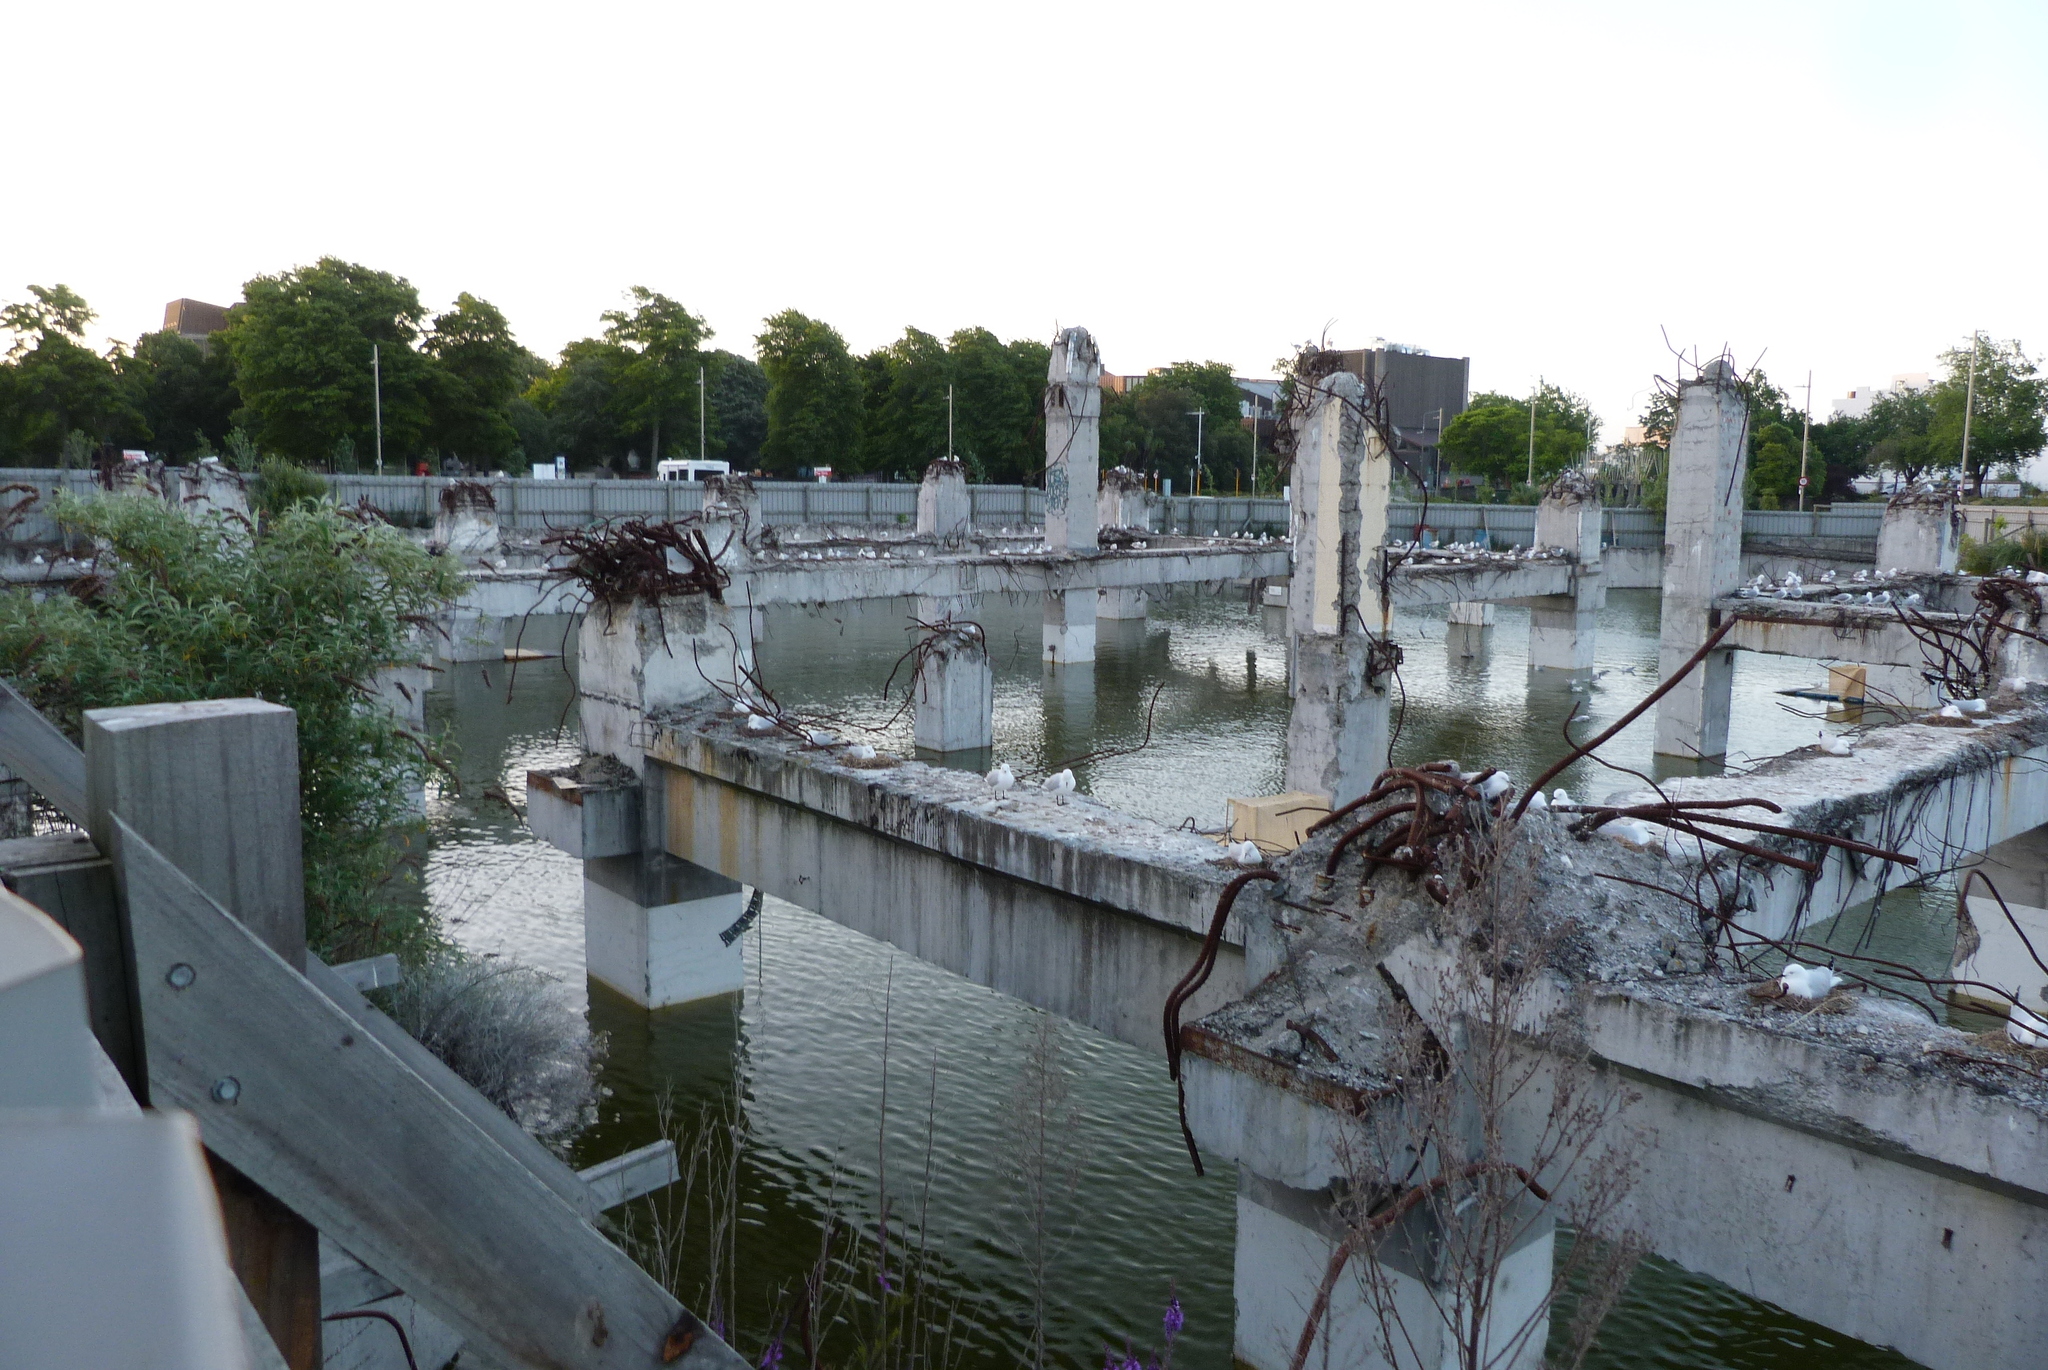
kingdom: Animalia
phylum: Chordata
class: Aves
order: Charadriiformes
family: Laridae
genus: Chroicocephalus
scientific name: Chroicocephalus bulleri
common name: Black-billed gull
